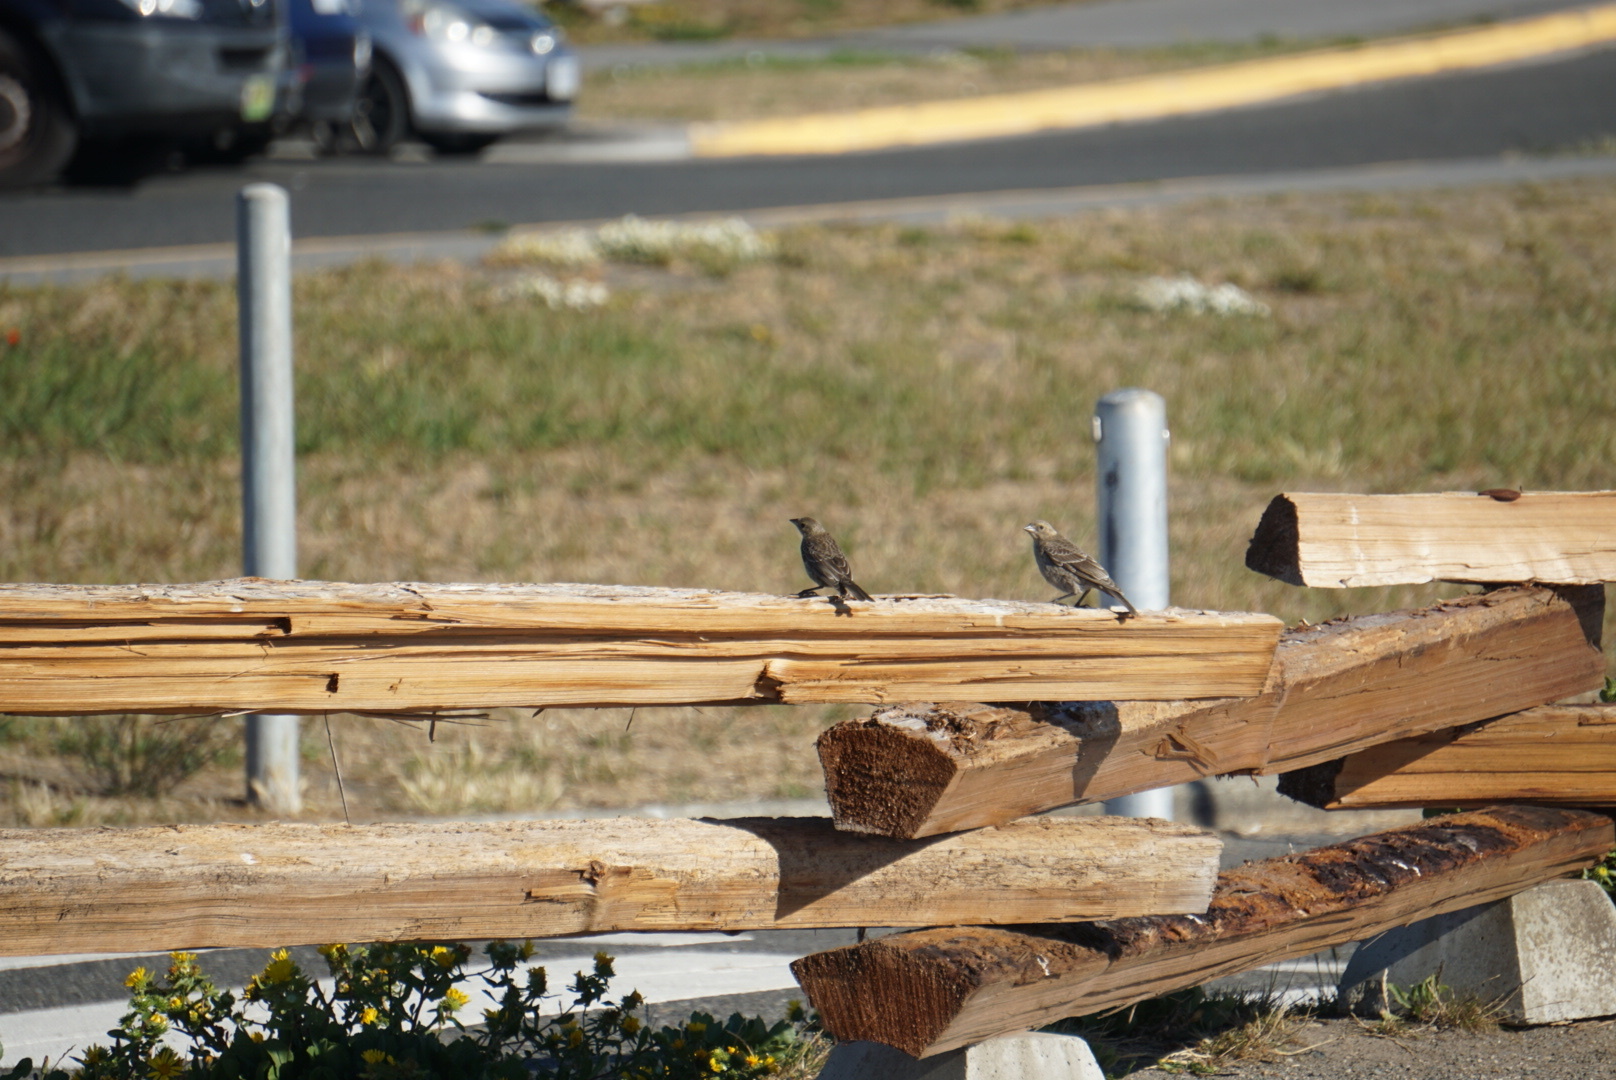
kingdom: Animalia
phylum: Chordata
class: Aves
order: Passeriformes
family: Icteridae
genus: Molothrus
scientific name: Molothrus ater
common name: Brown-headed cowbird
